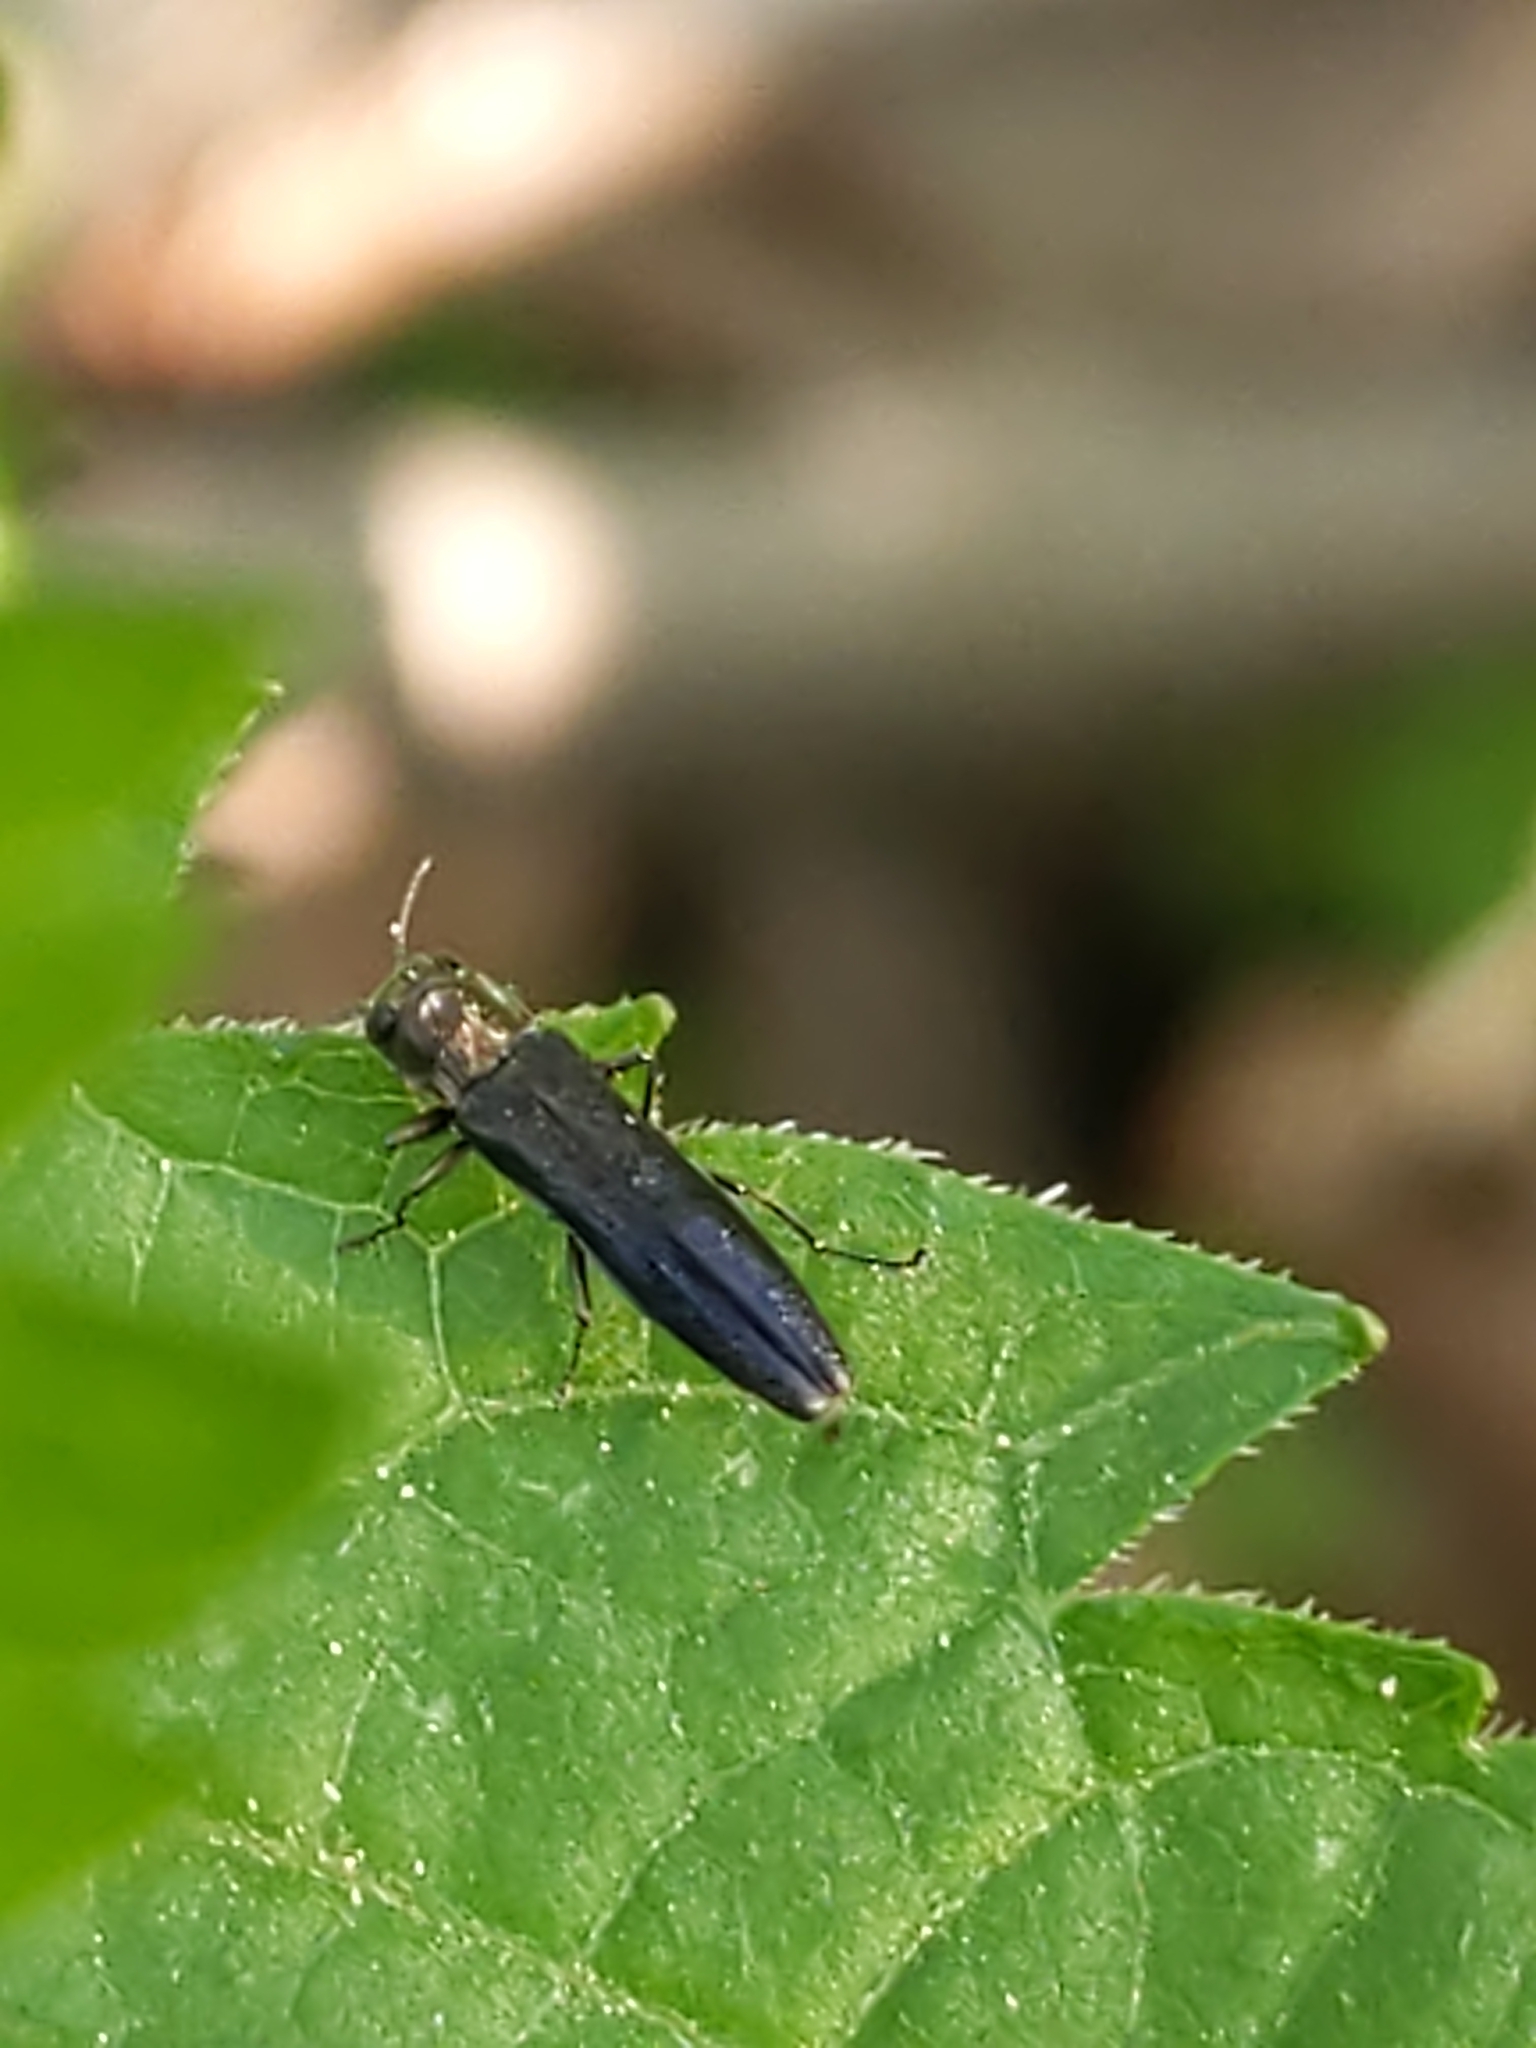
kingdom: Animalia
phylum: Arthropoda
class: Insecta
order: Coleoptera
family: Buprestidae
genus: Agrilus
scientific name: Agrilus
